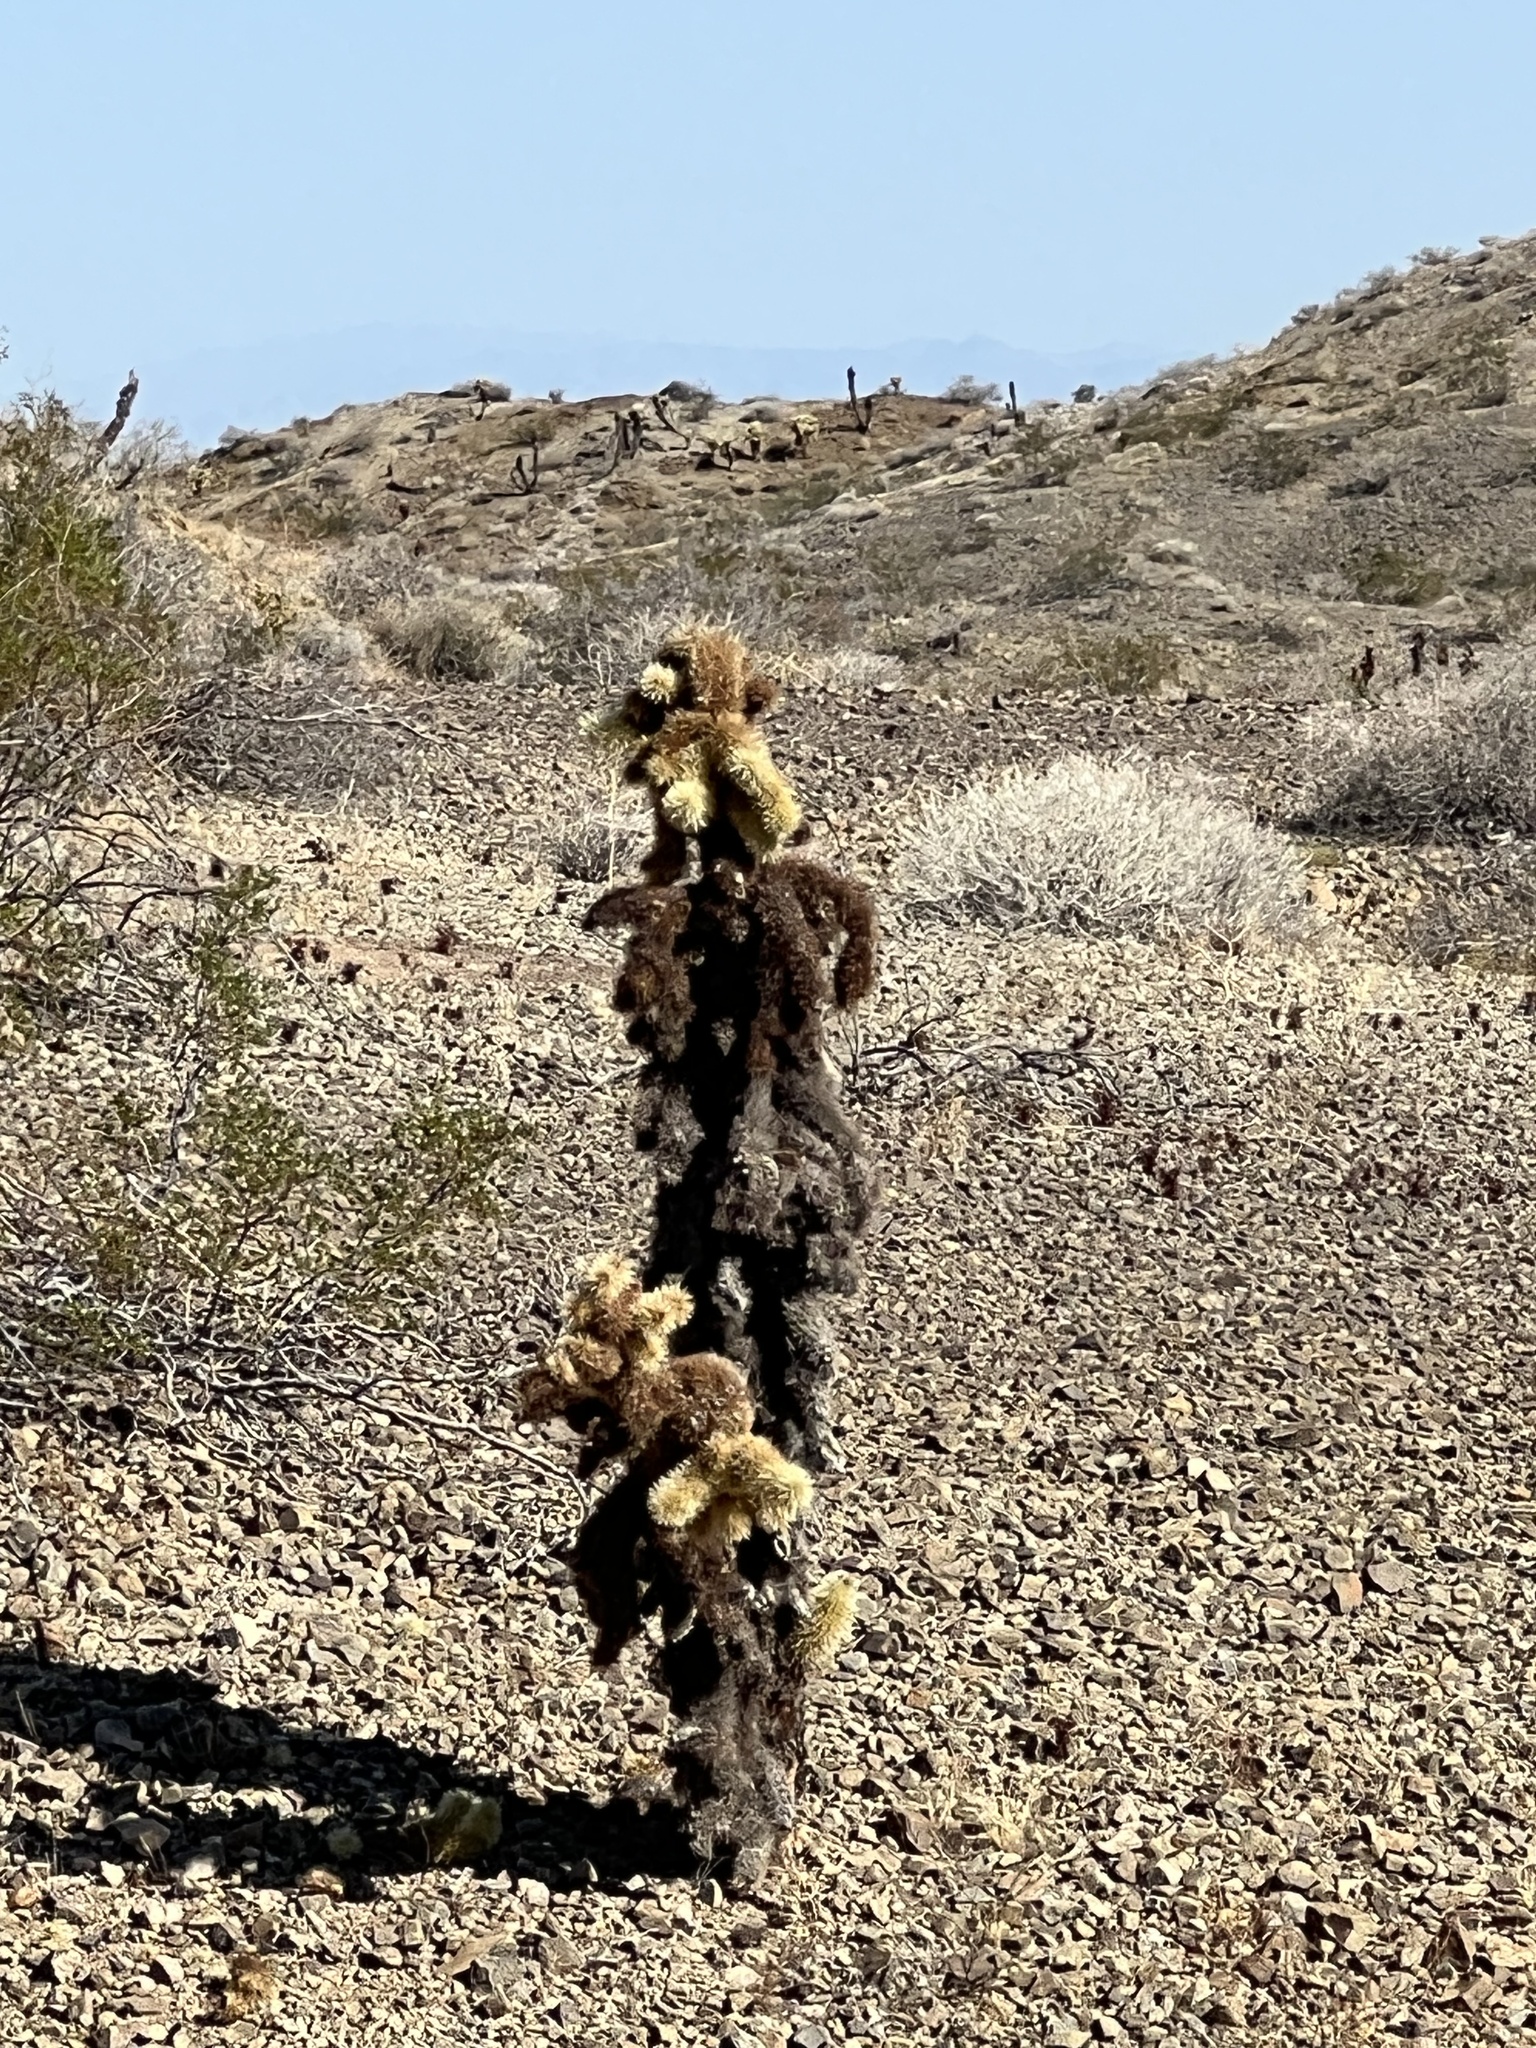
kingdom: Plantae
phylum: Tracheophyta
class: Magnoliopsida
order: Caryophyllales
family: Cactaceae
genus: Cylindropuntia
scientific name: Cylindropuntia fosbergii
